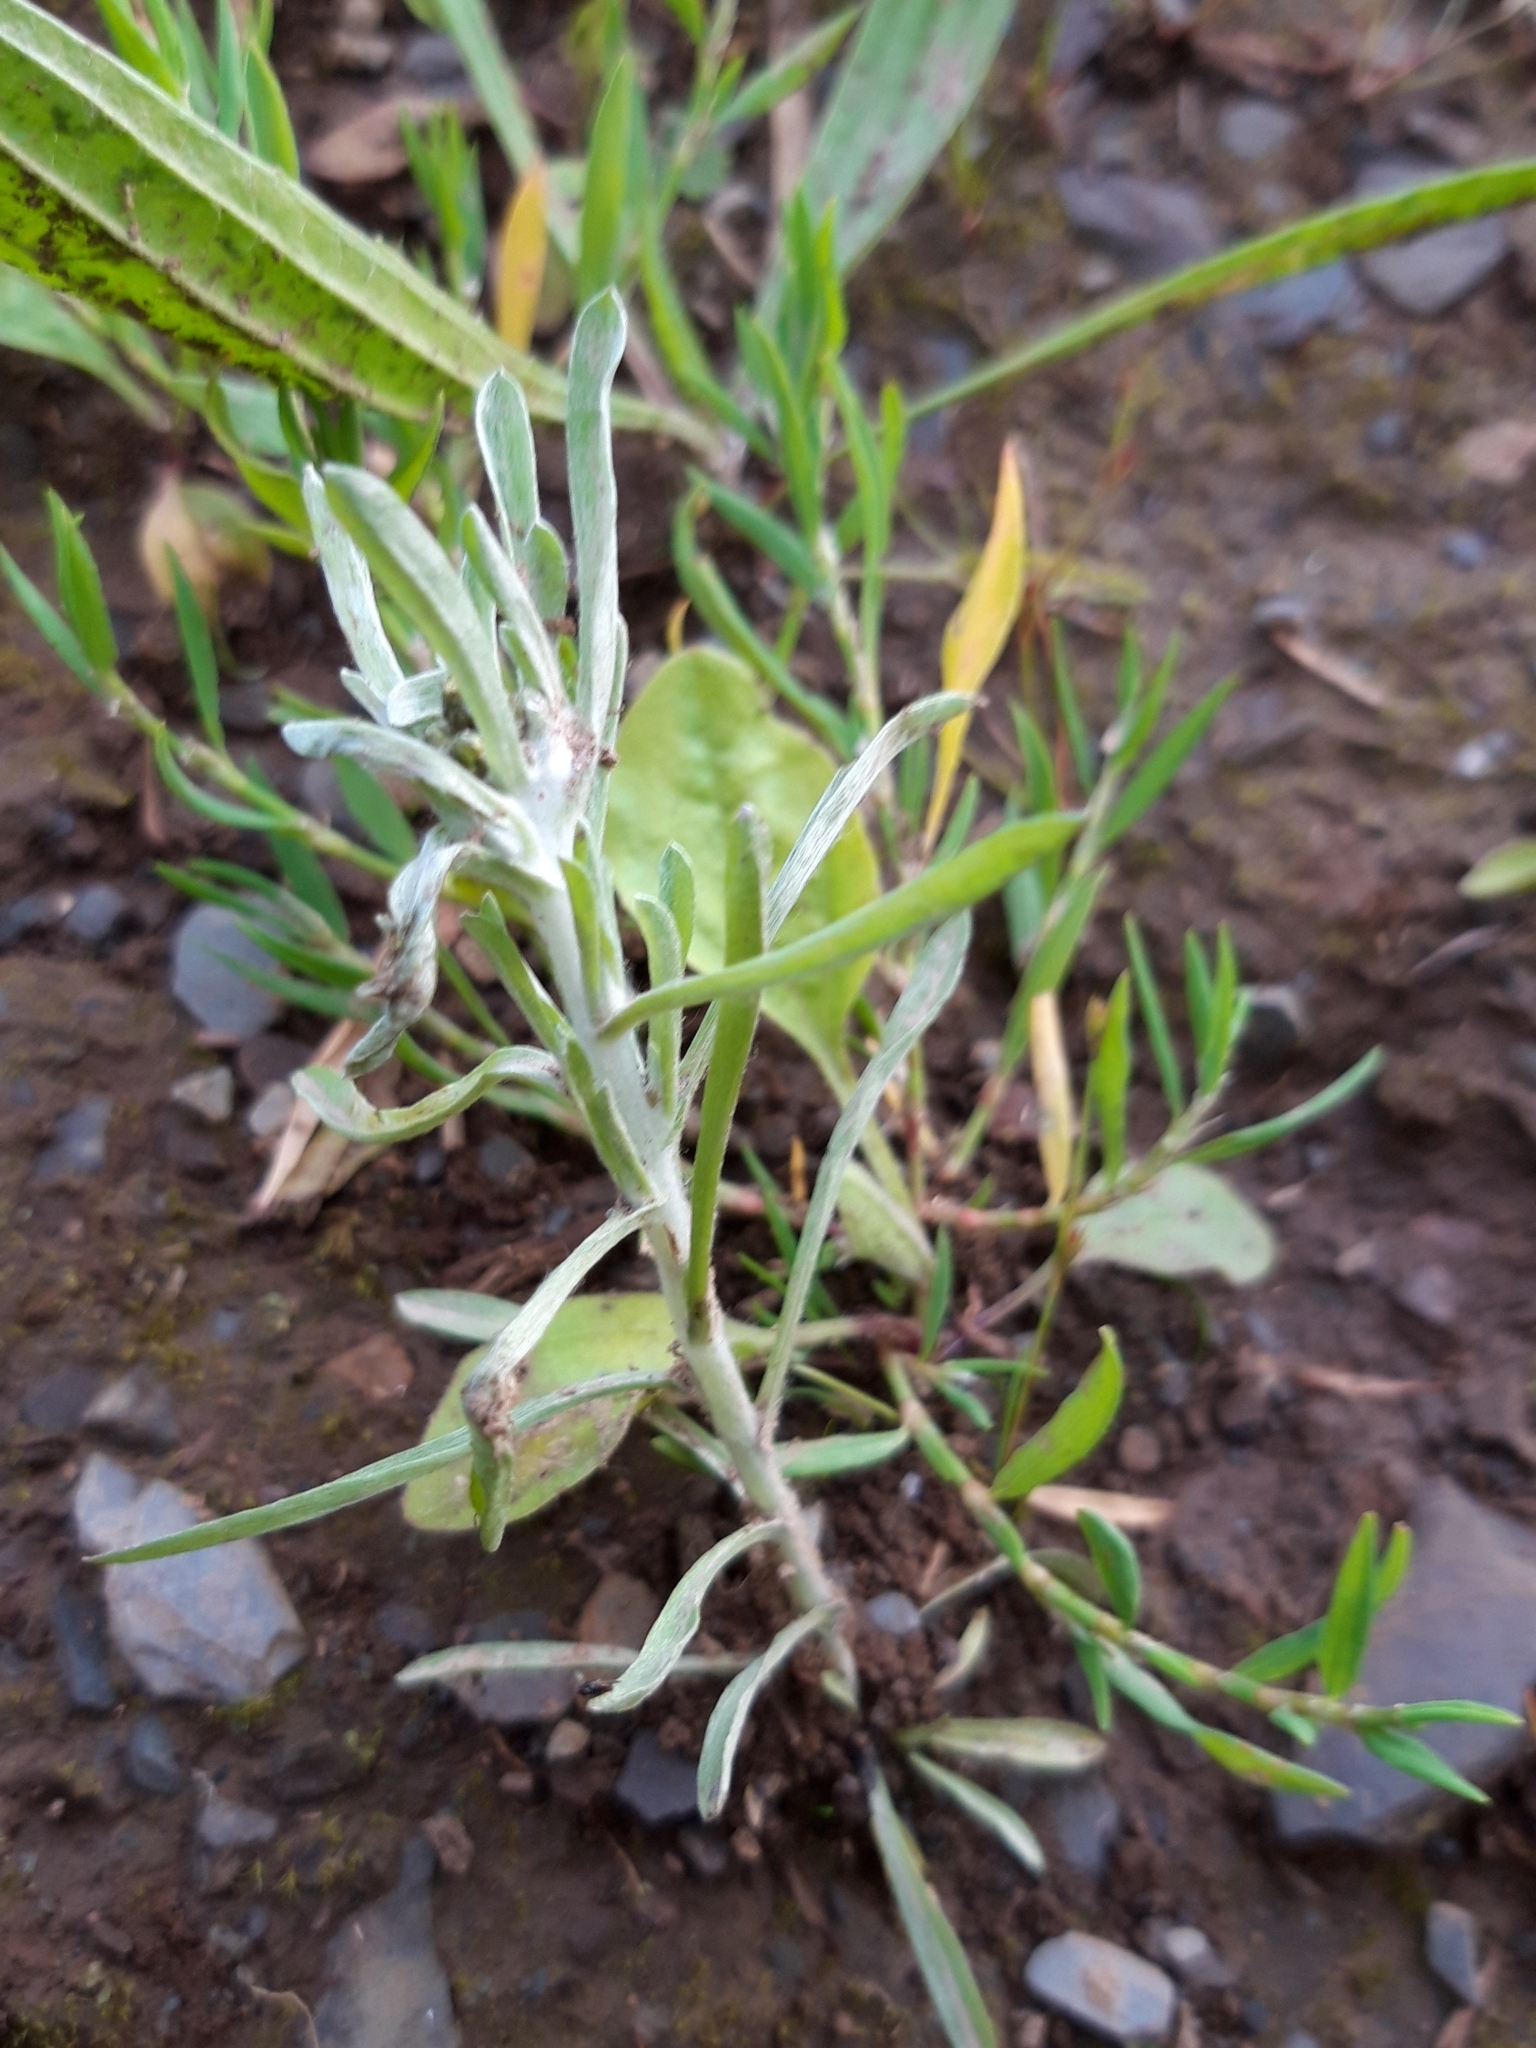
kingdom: Plantae
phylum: Tracheophyta
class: Magnoliopsida
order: Asterales
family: Asteraceae
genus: Gnaphalium
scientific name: Gnaphalium uliginosum
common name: Marsh cudweed
